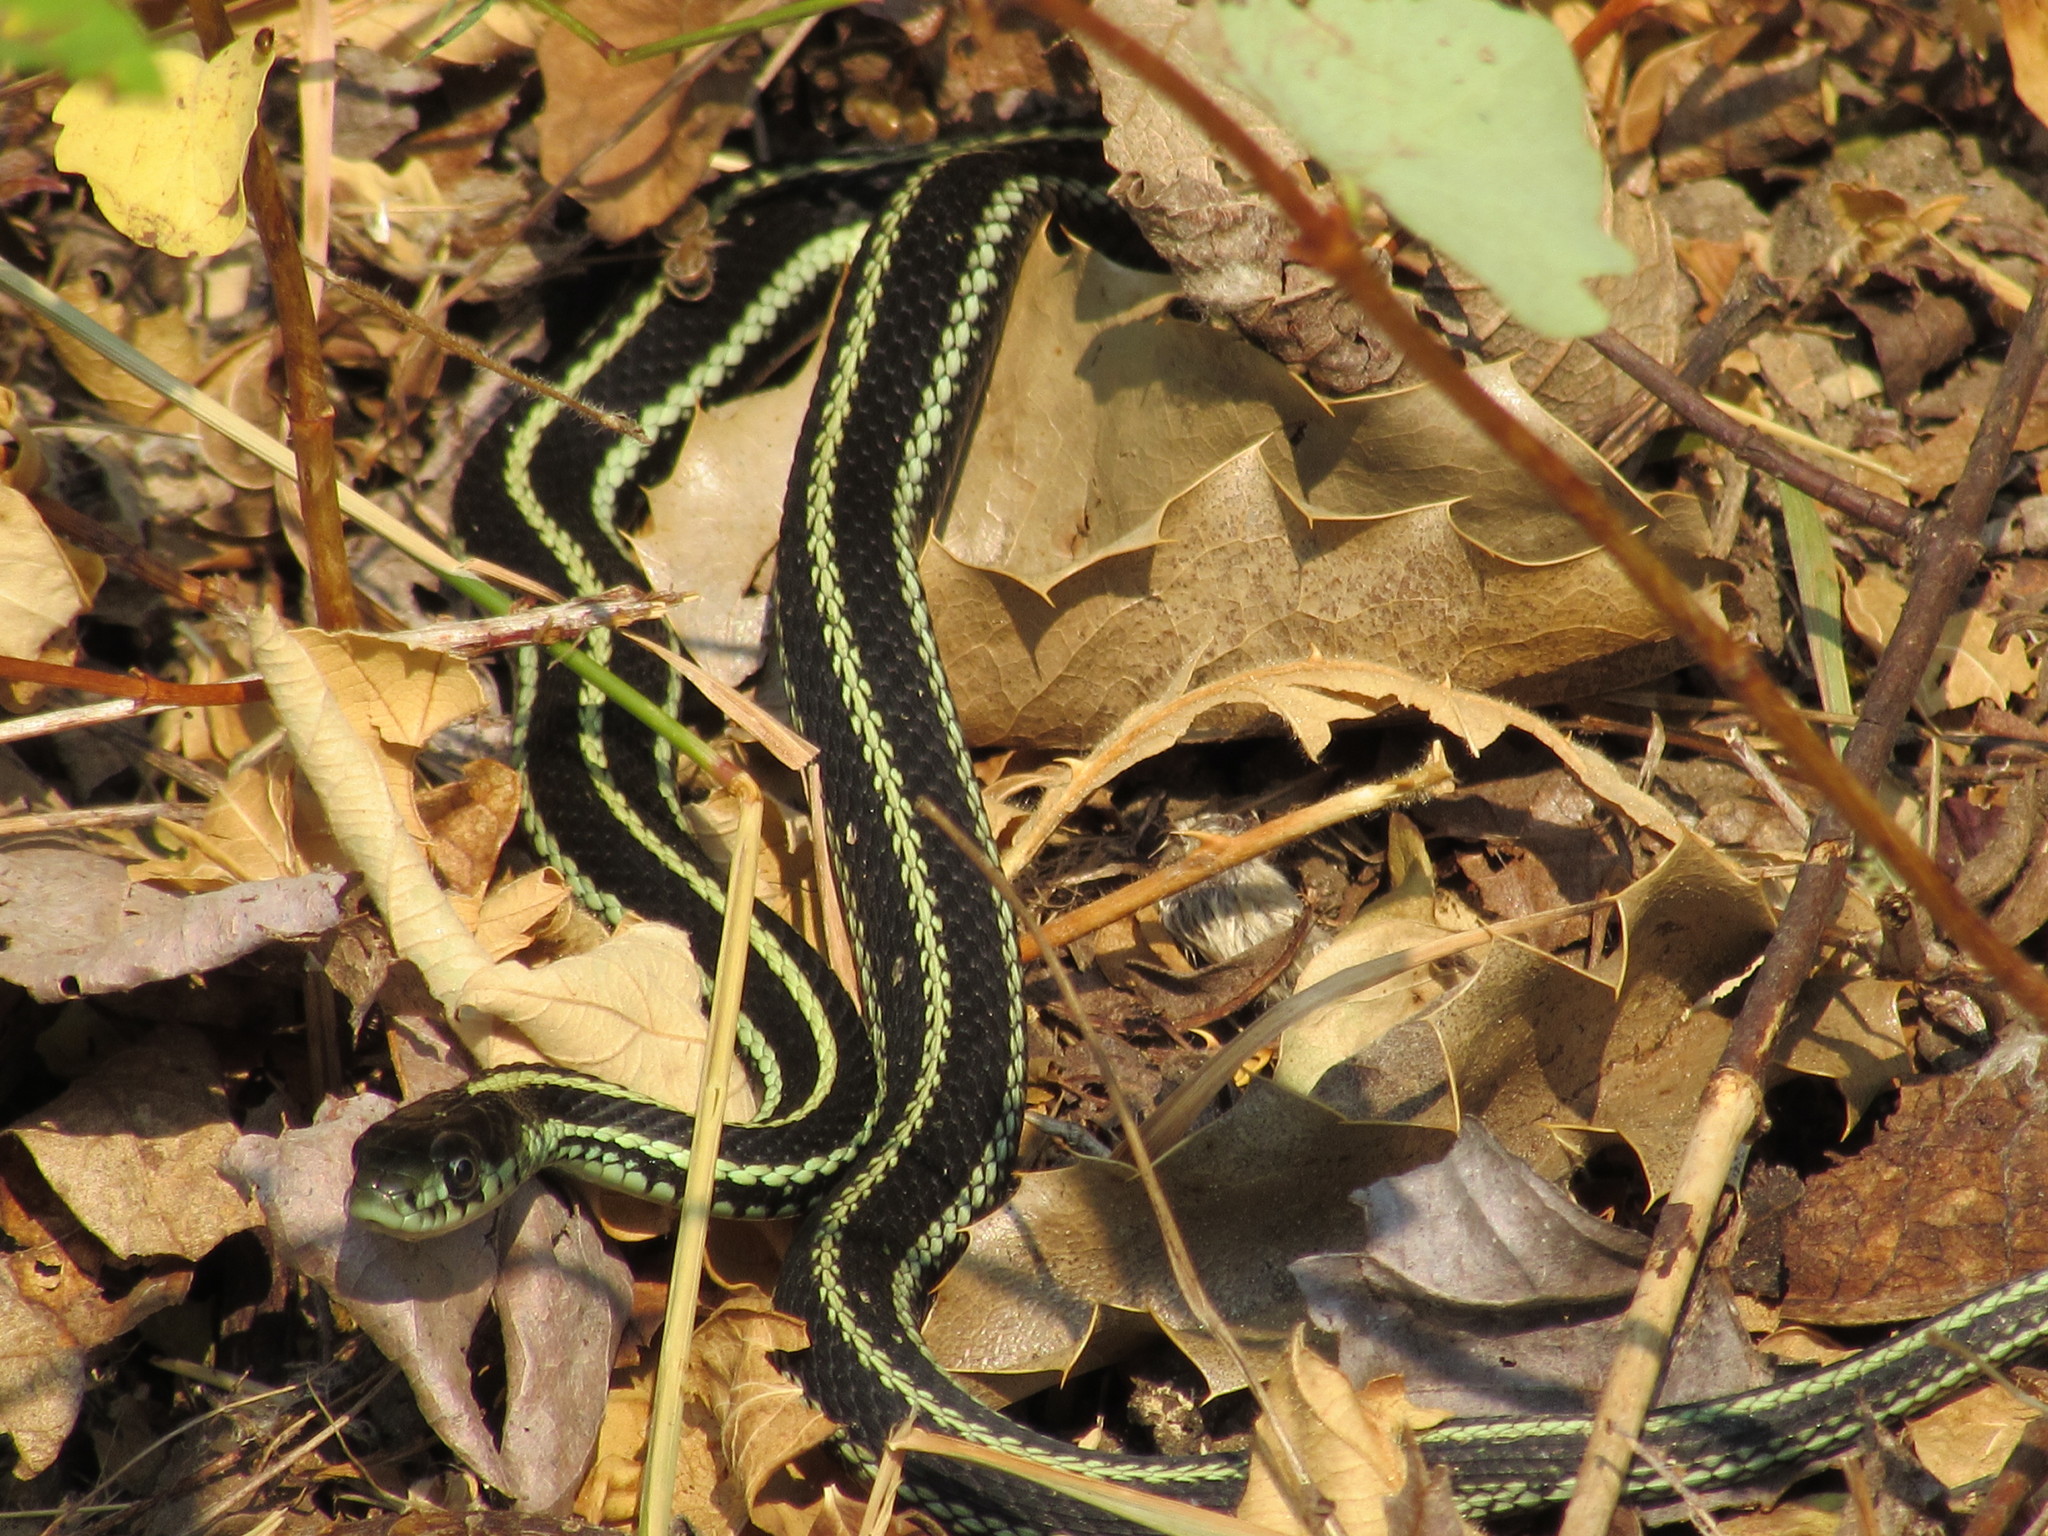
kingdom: Animalia
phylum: Chordata
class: Squamata
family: Colubridae
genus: Thamnophis
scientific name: Thamnophis sirtalis
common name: Common garter snake
